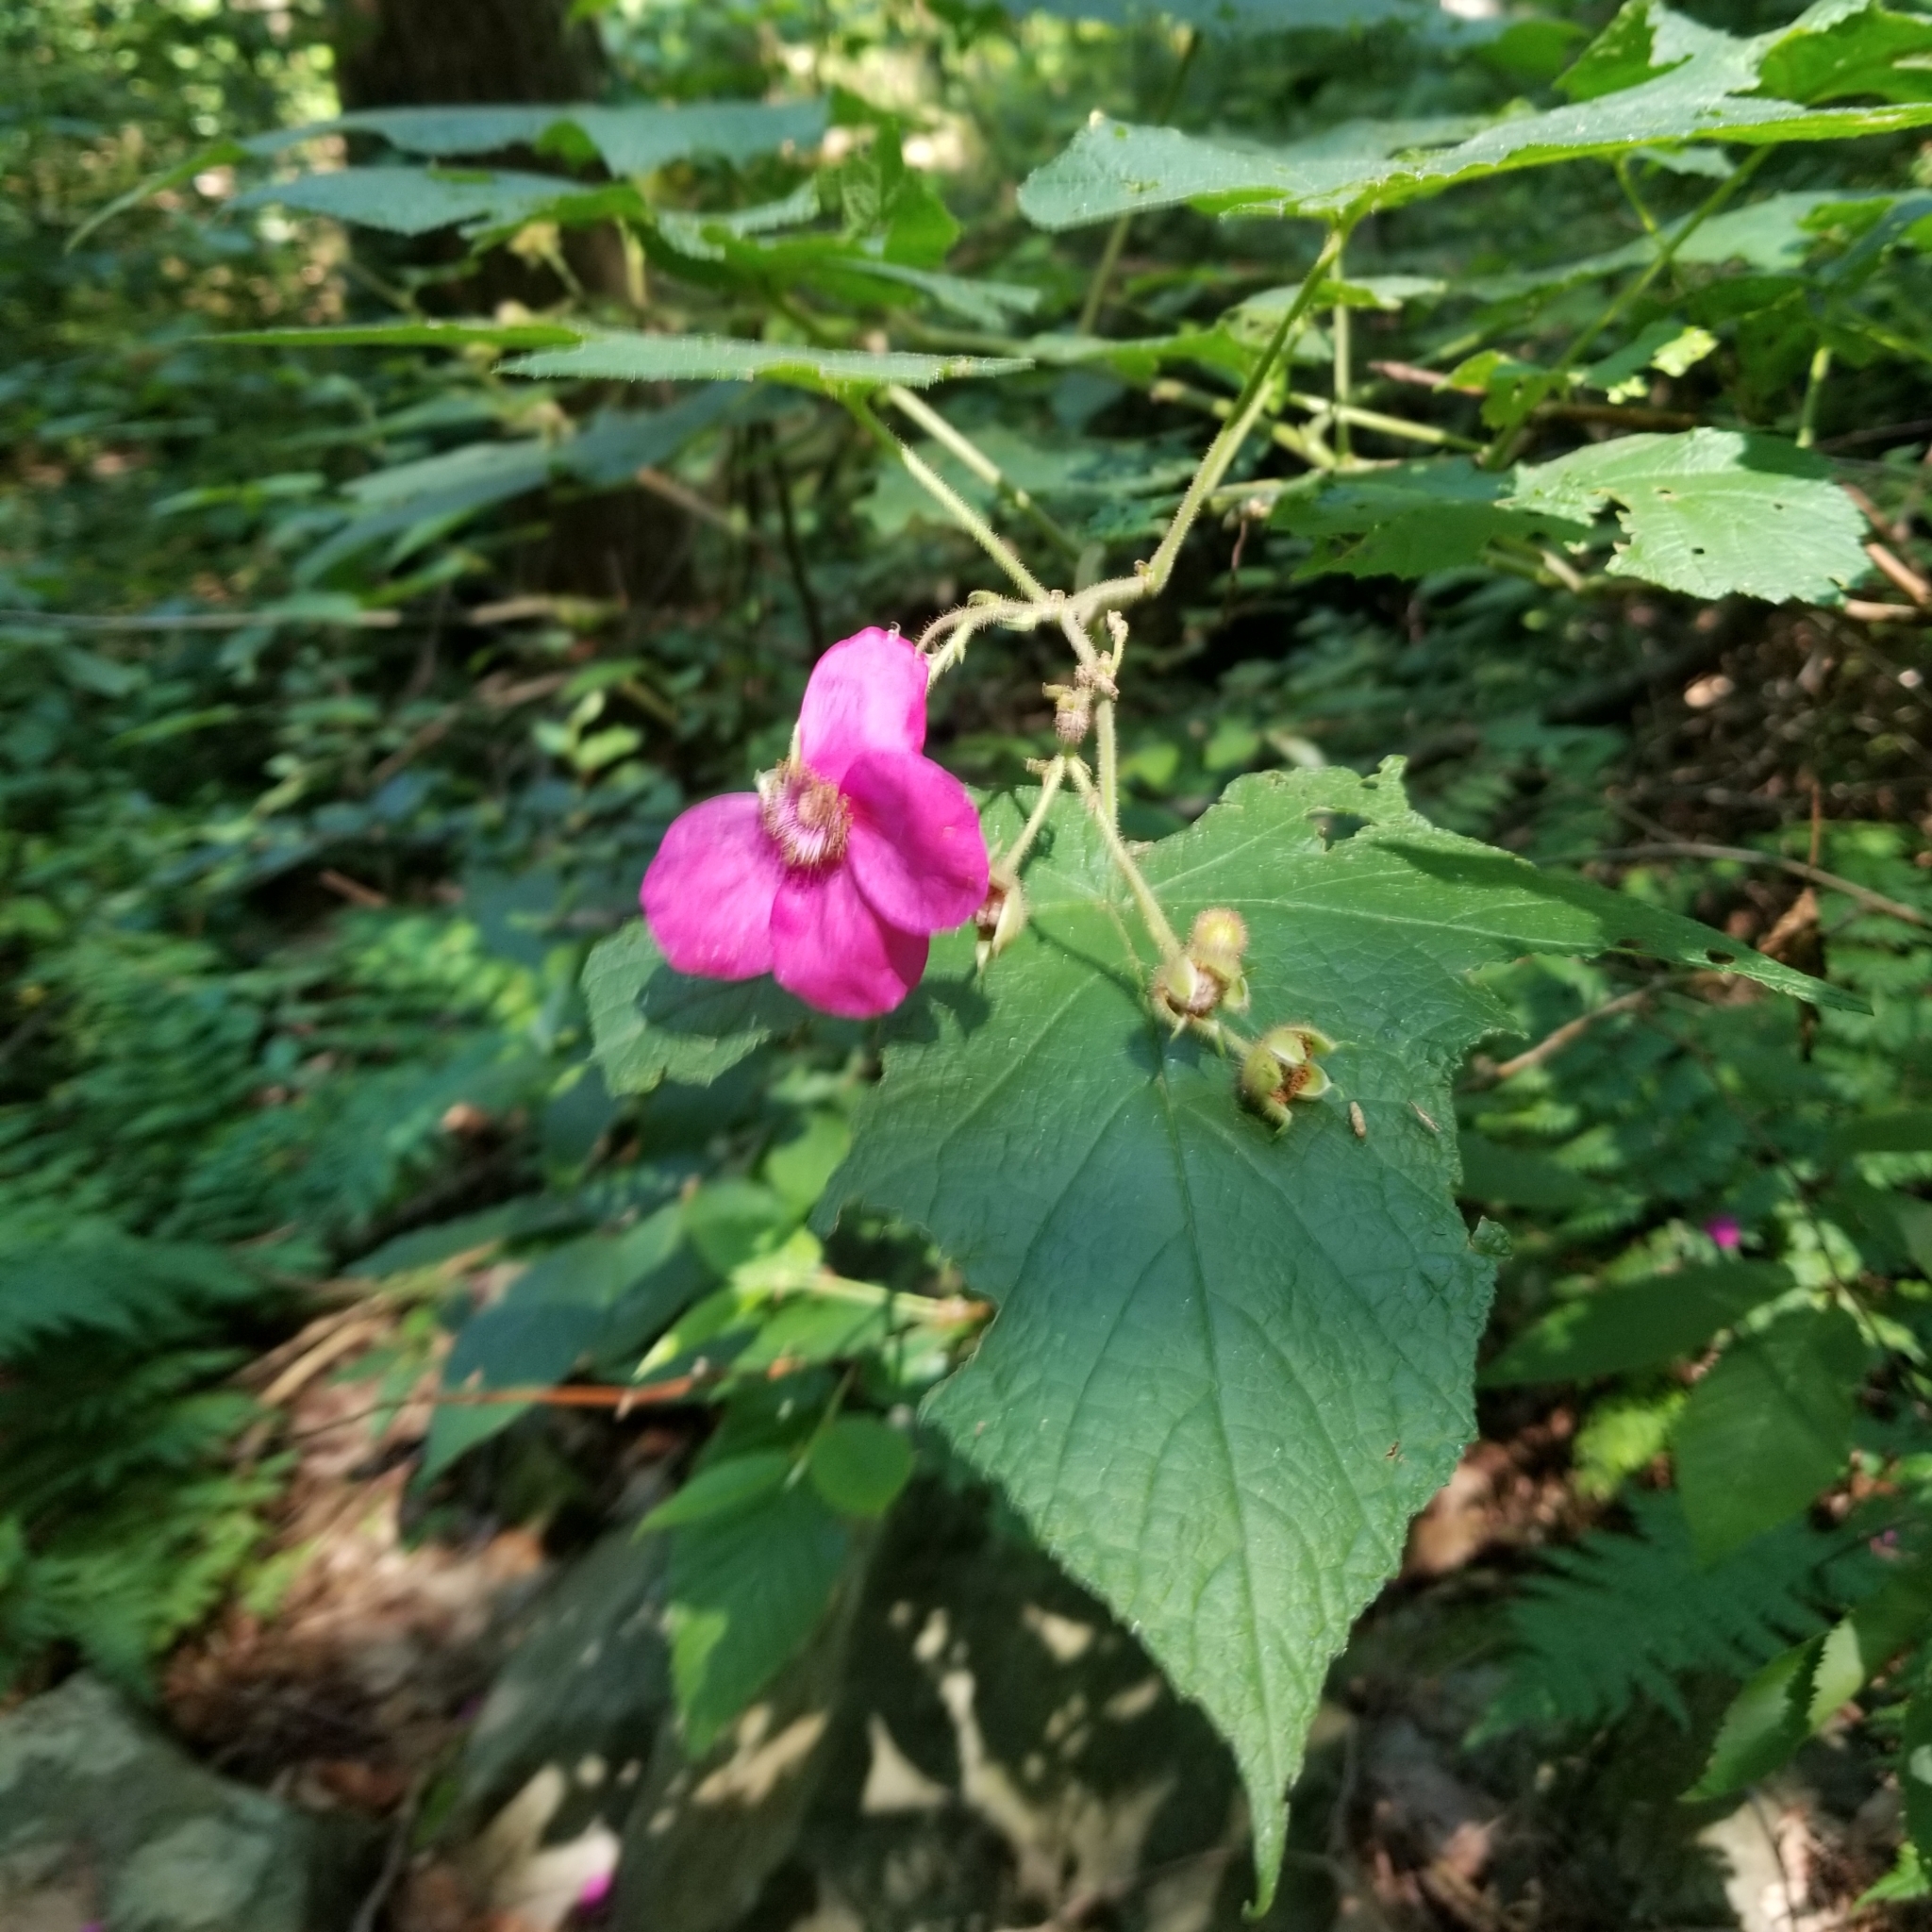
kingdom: Plantae
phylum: Tracheophyta
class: Magnoliopsida
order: Rosales
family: Rosaceae
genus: Rubus
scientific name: Rubus odoratus
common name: Purple-flowered raspberry
